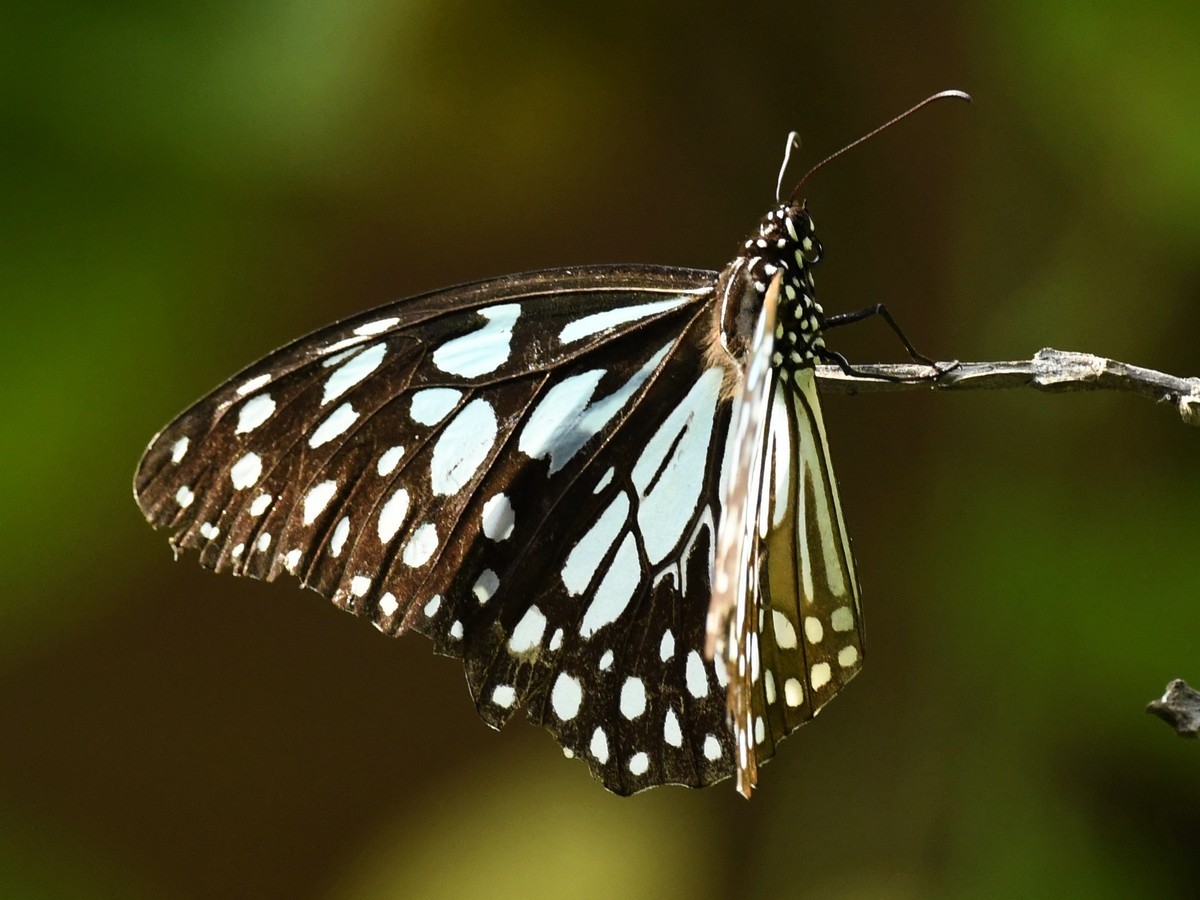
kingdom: Animalia
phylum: Arthropoda
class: Insecta
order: Lepidoptera
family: Nymphalidae
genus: Tirumala
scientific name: Tirumala limniace
